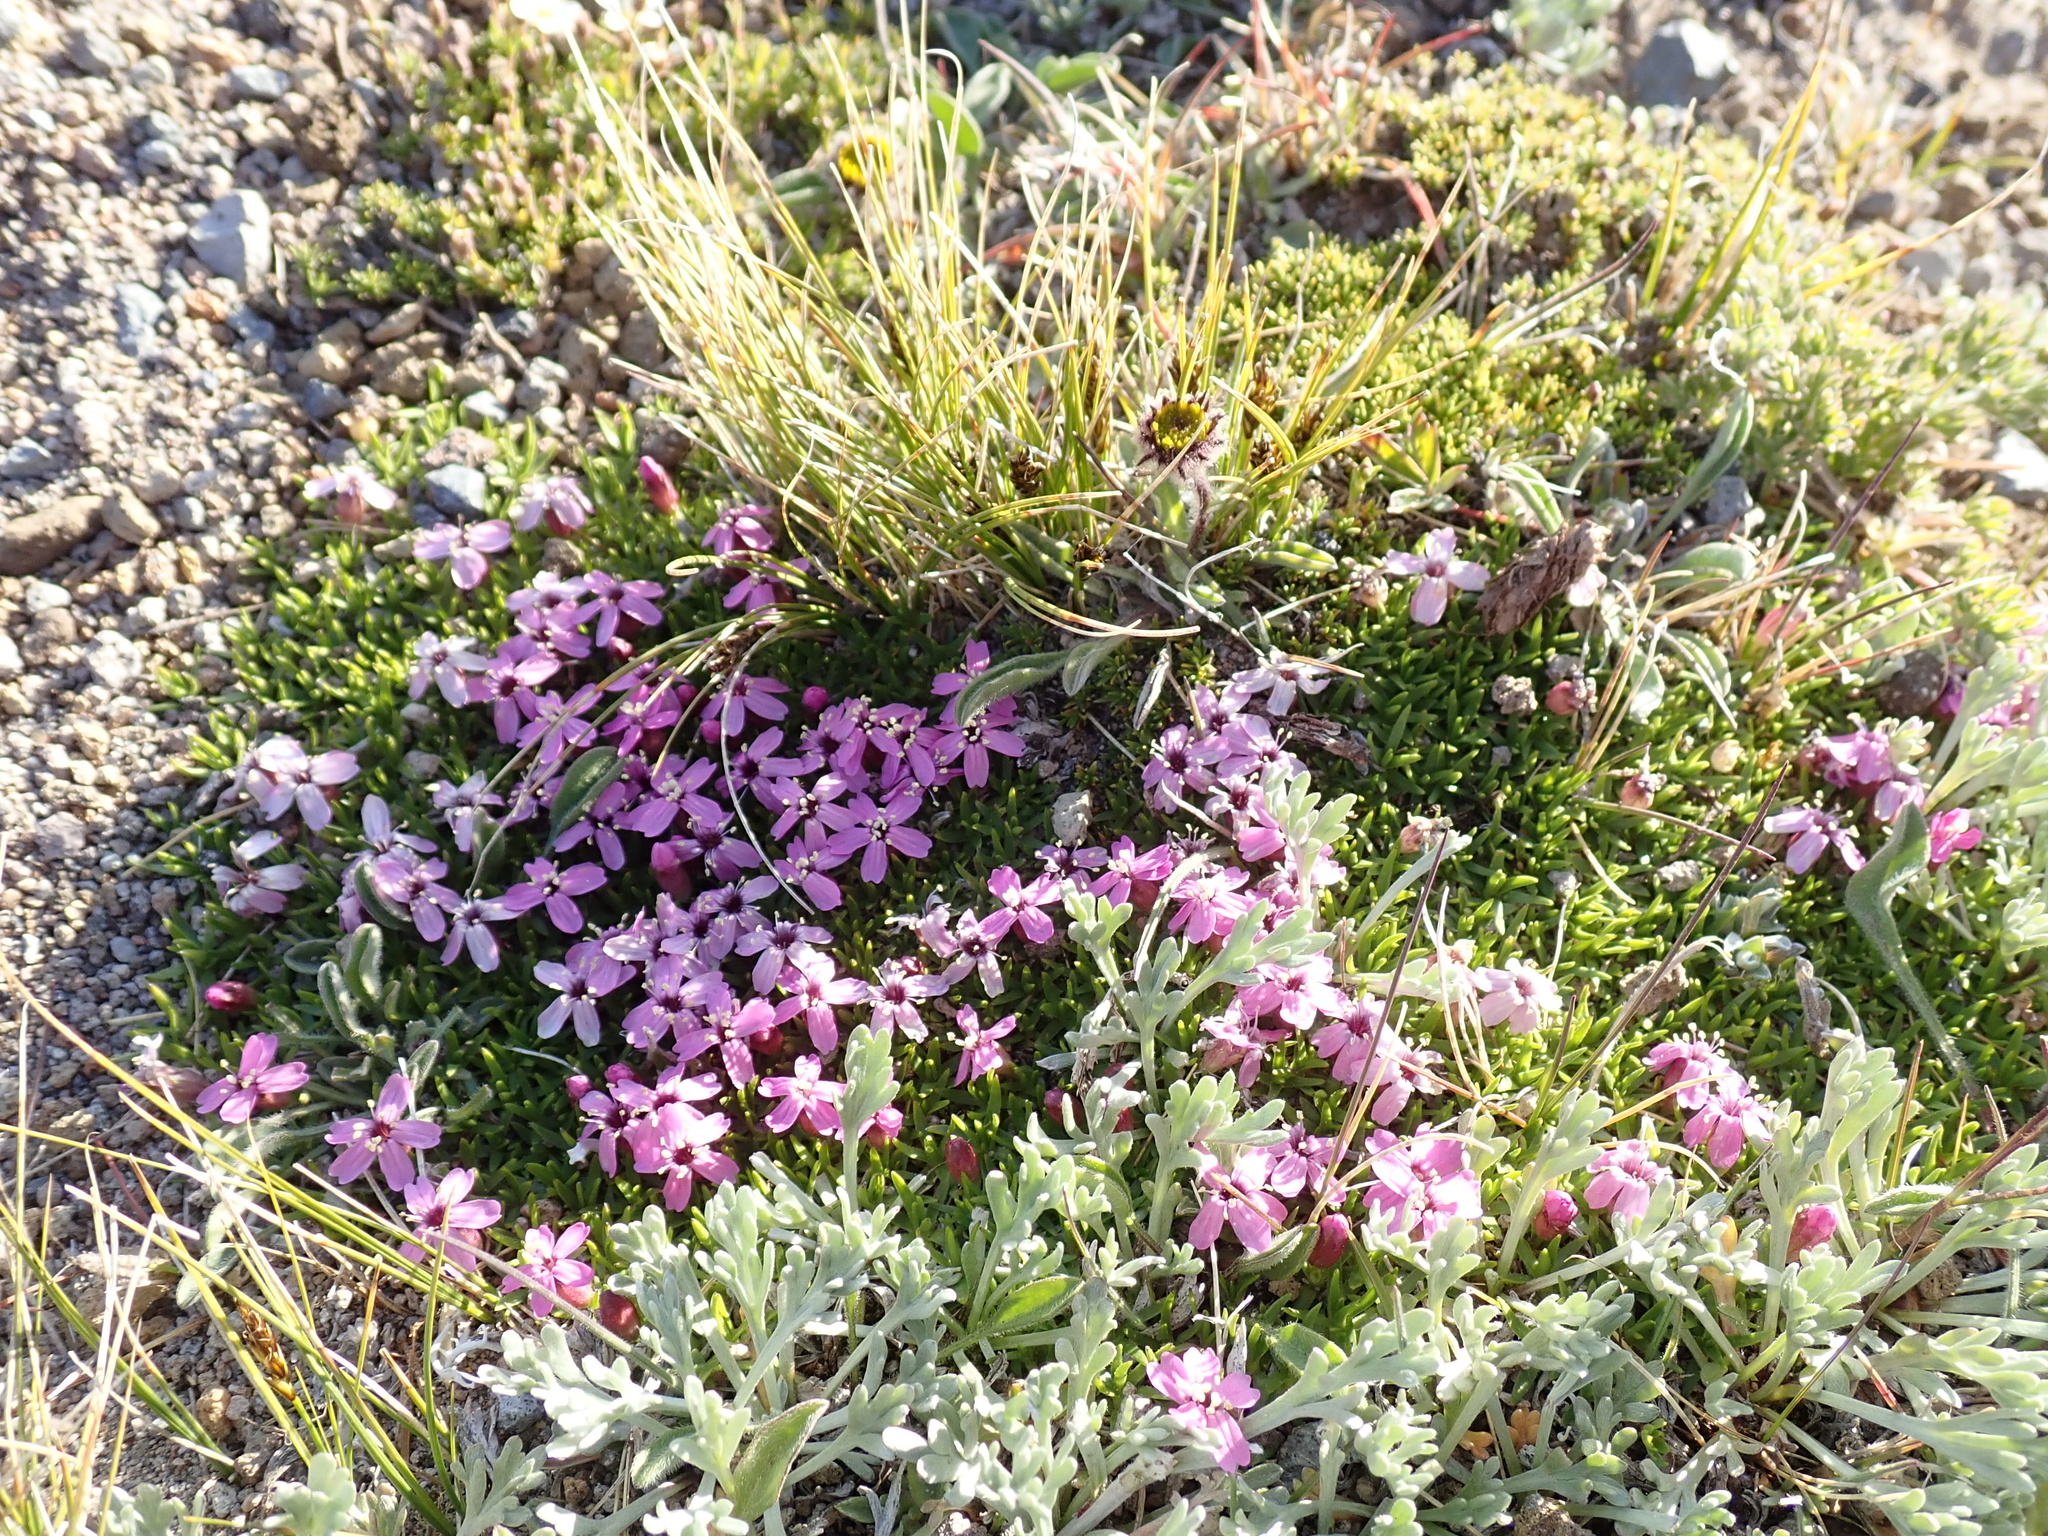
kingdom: Plantae
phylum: Tracheophyta
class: Magnoliopsida
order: Caryophyllales
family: Caryophyllaceae
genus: Silene
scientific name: Silene acaulis
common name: Moss campion
